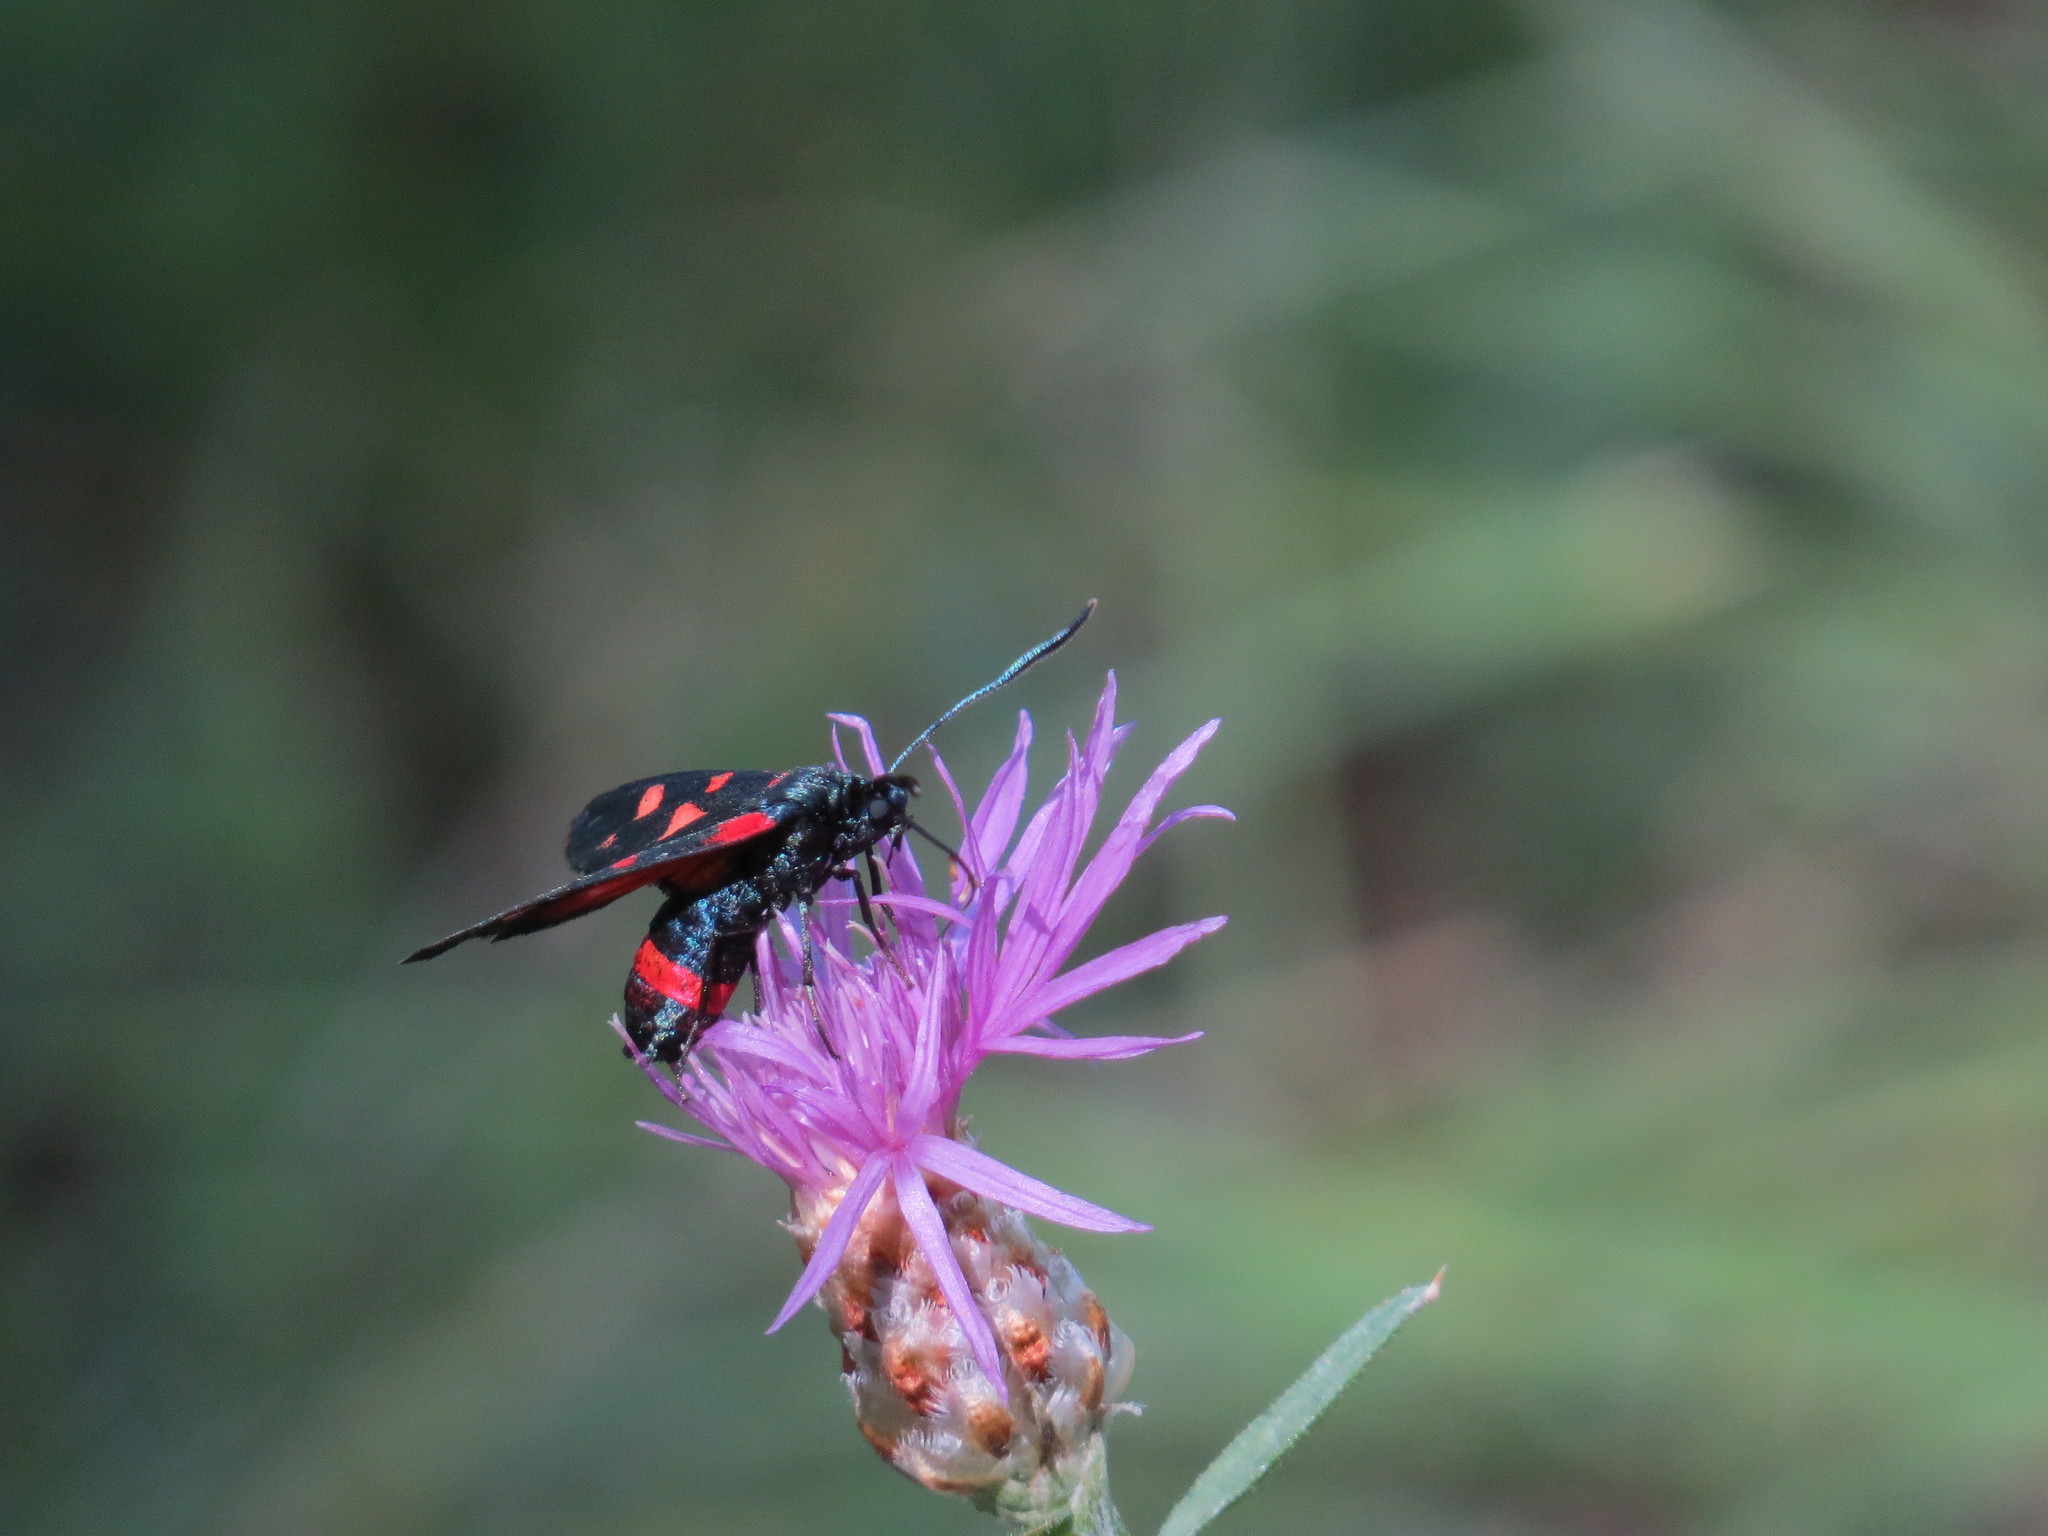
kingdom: Animalia
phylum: Arthropoda
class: Insecta
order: Lepidoptera
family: Zygaenidae
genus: Zygaena
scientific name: Zygaena ephialtes
